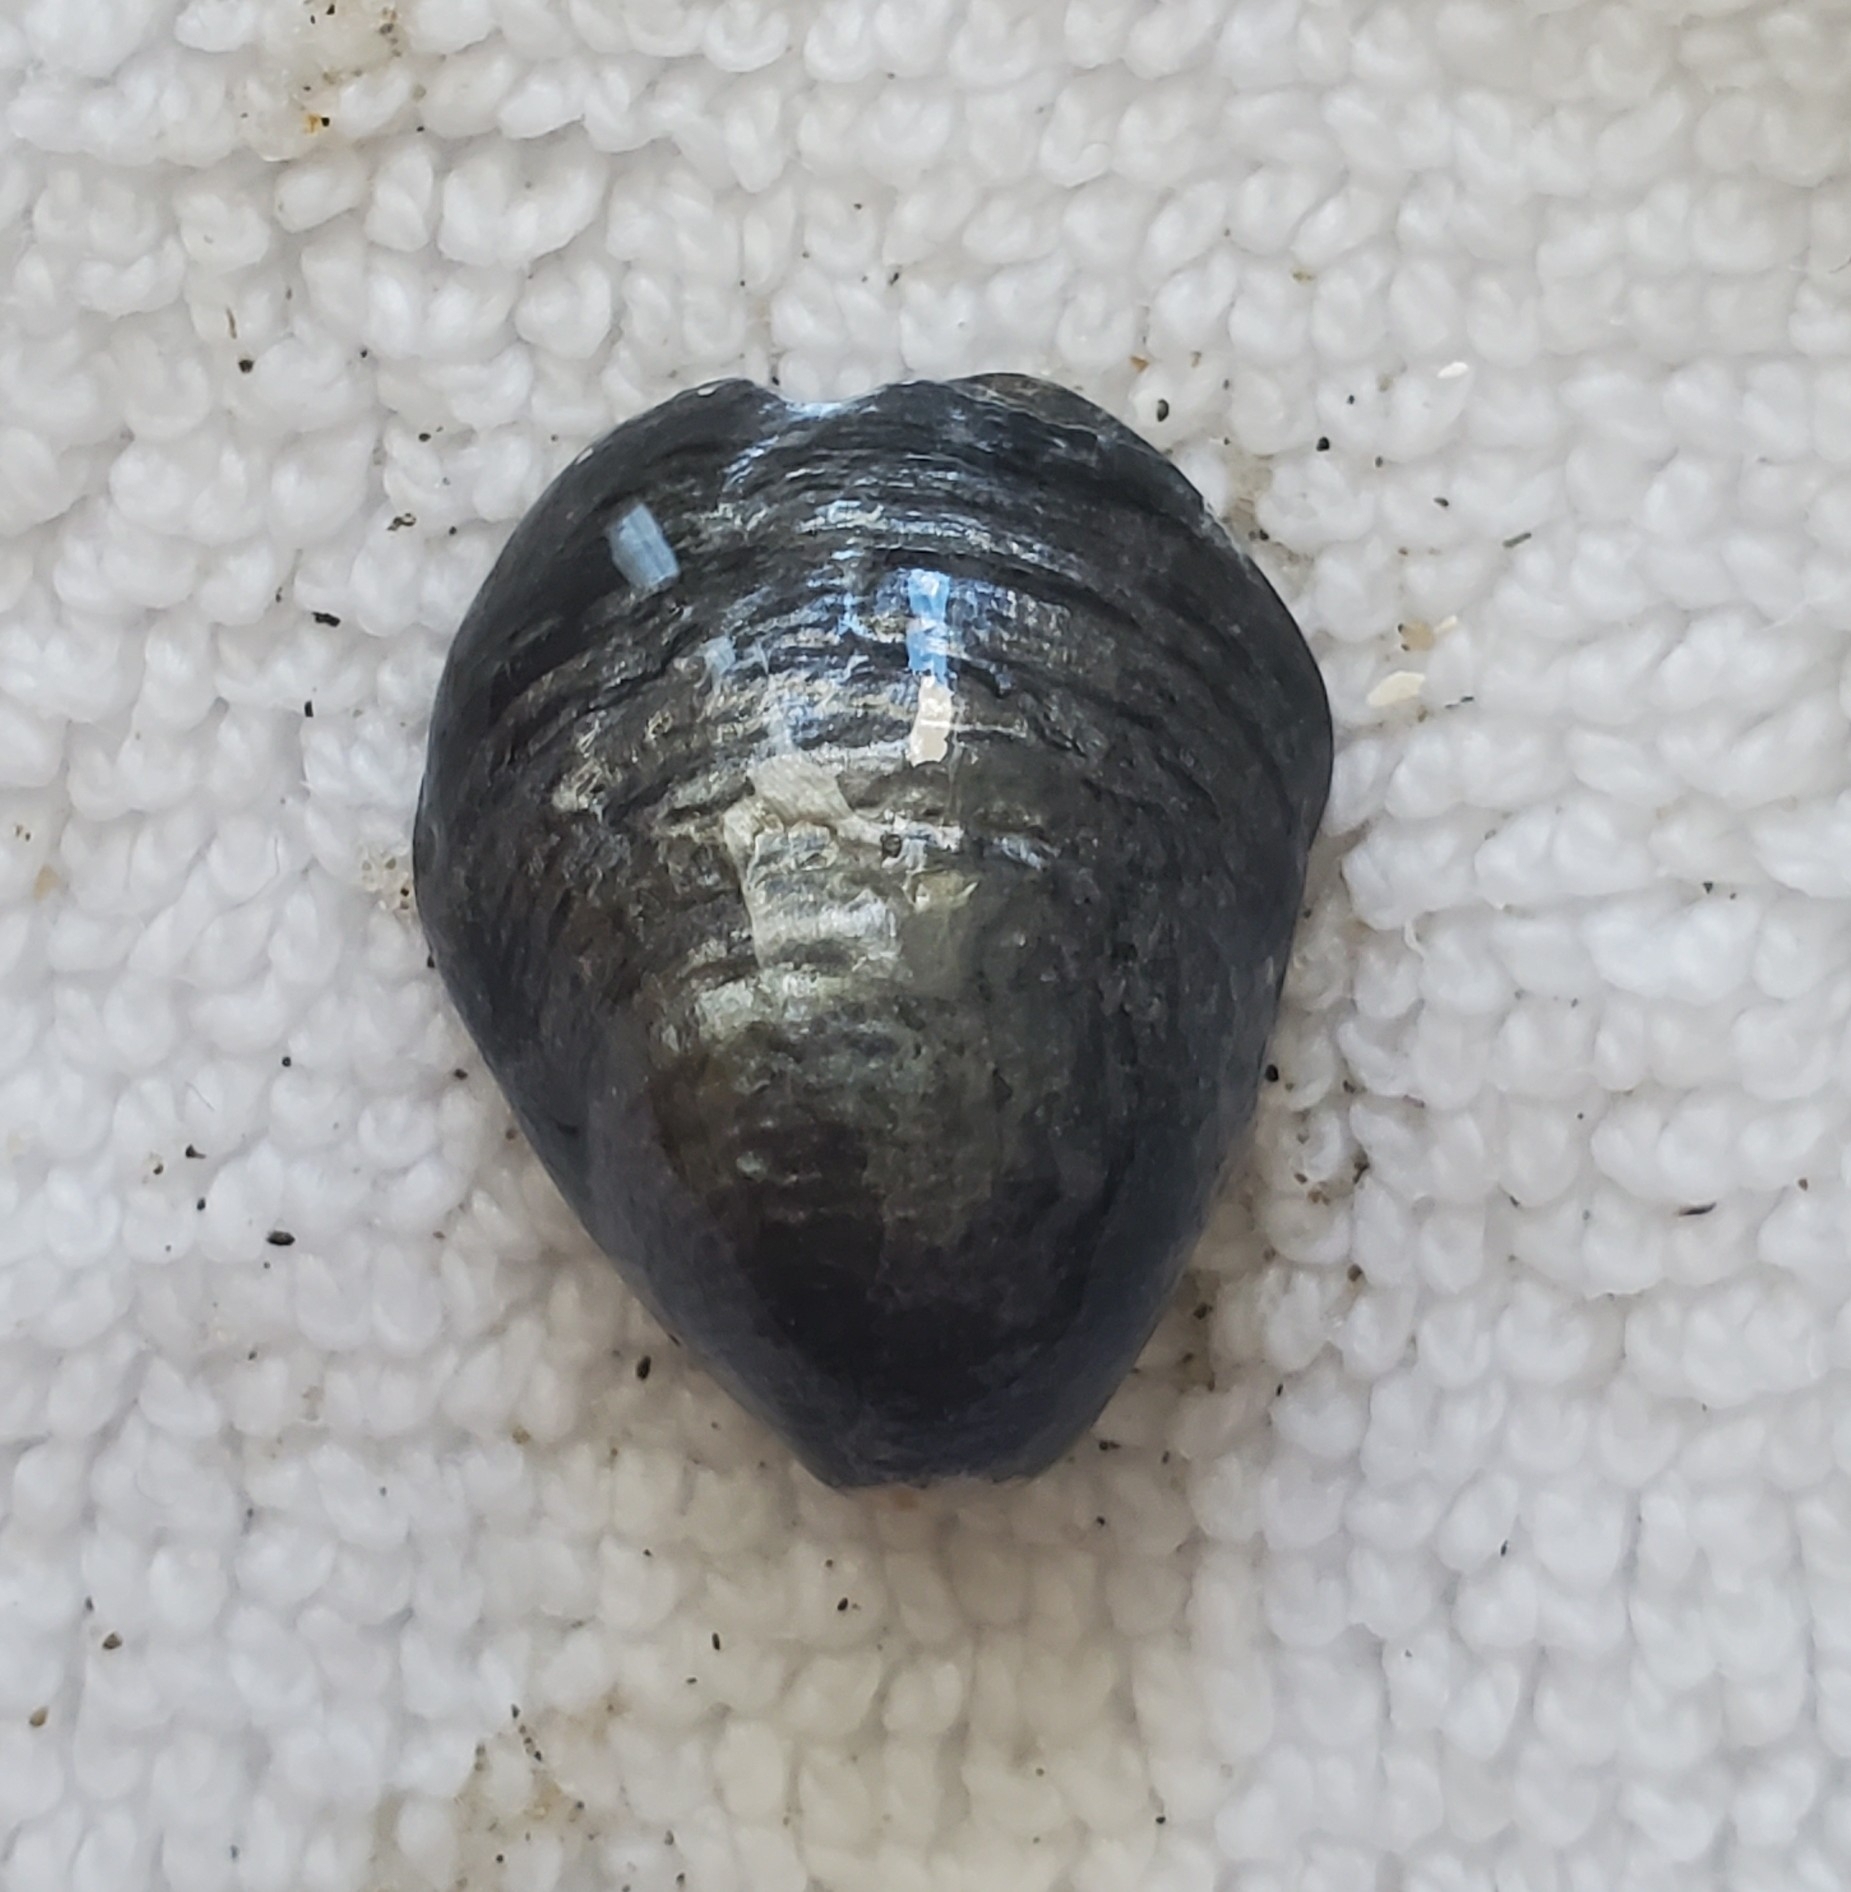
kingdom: Animalia
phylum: Mollusca
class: Bivalvia
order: Pectinida
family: Anomiidae
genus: Anomia
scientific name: Anomia simplex
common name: Common jingle shell
